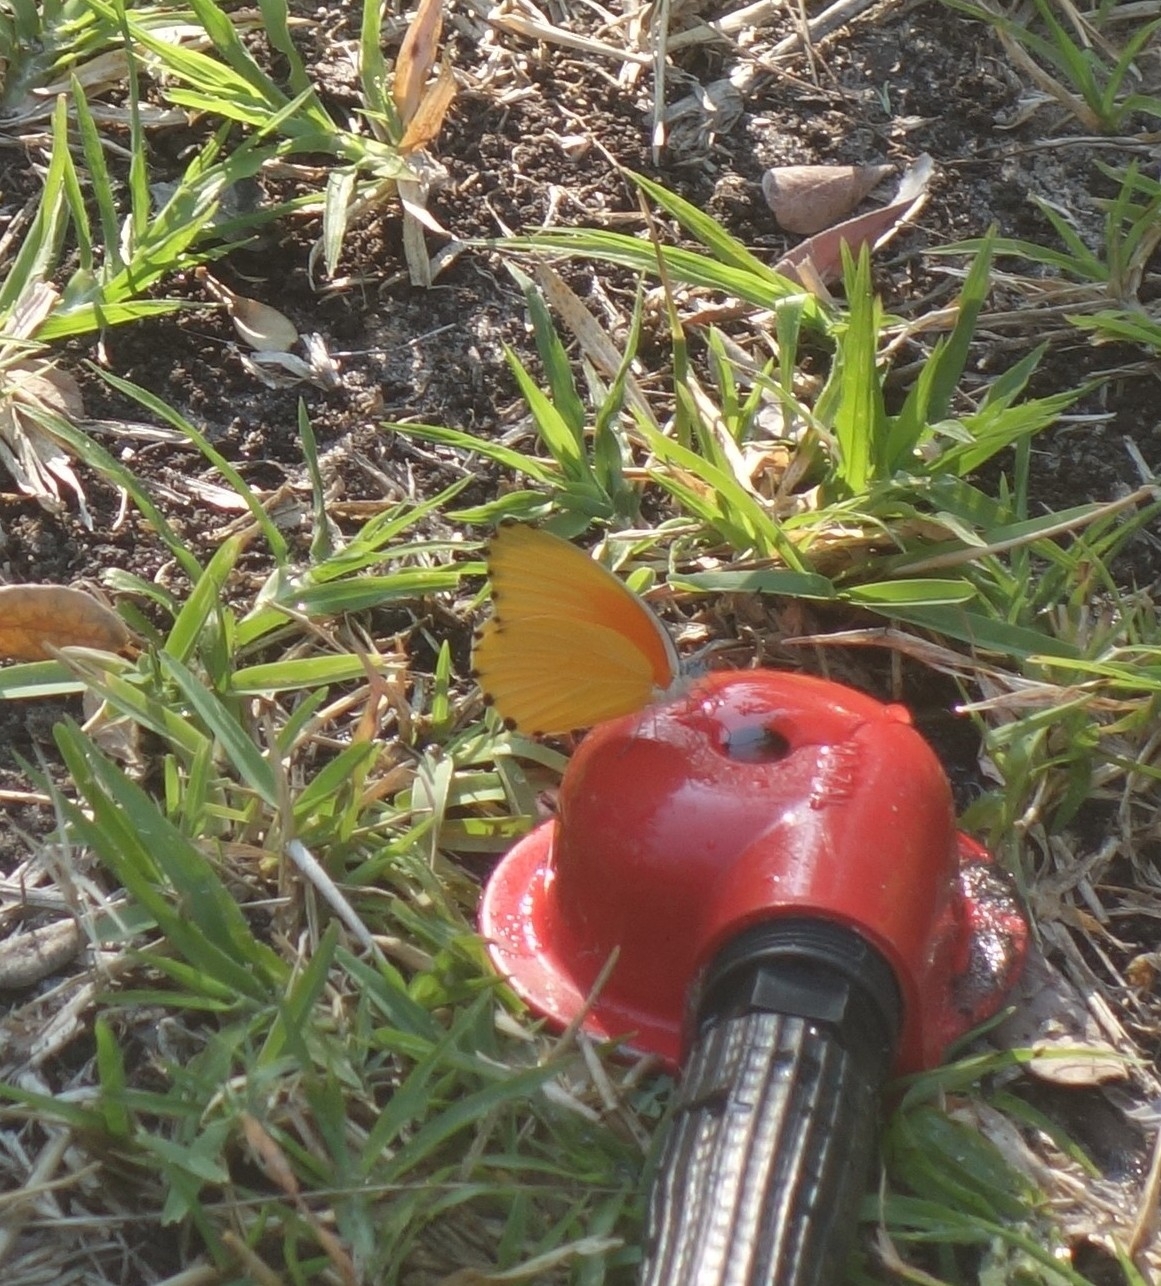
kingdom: Animalia
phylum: Arthropoda
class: Insecta
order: Lepidoptera
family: Pieridae
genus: Mylothris
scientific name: Mylothris agathina
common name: Eastern dotted border
